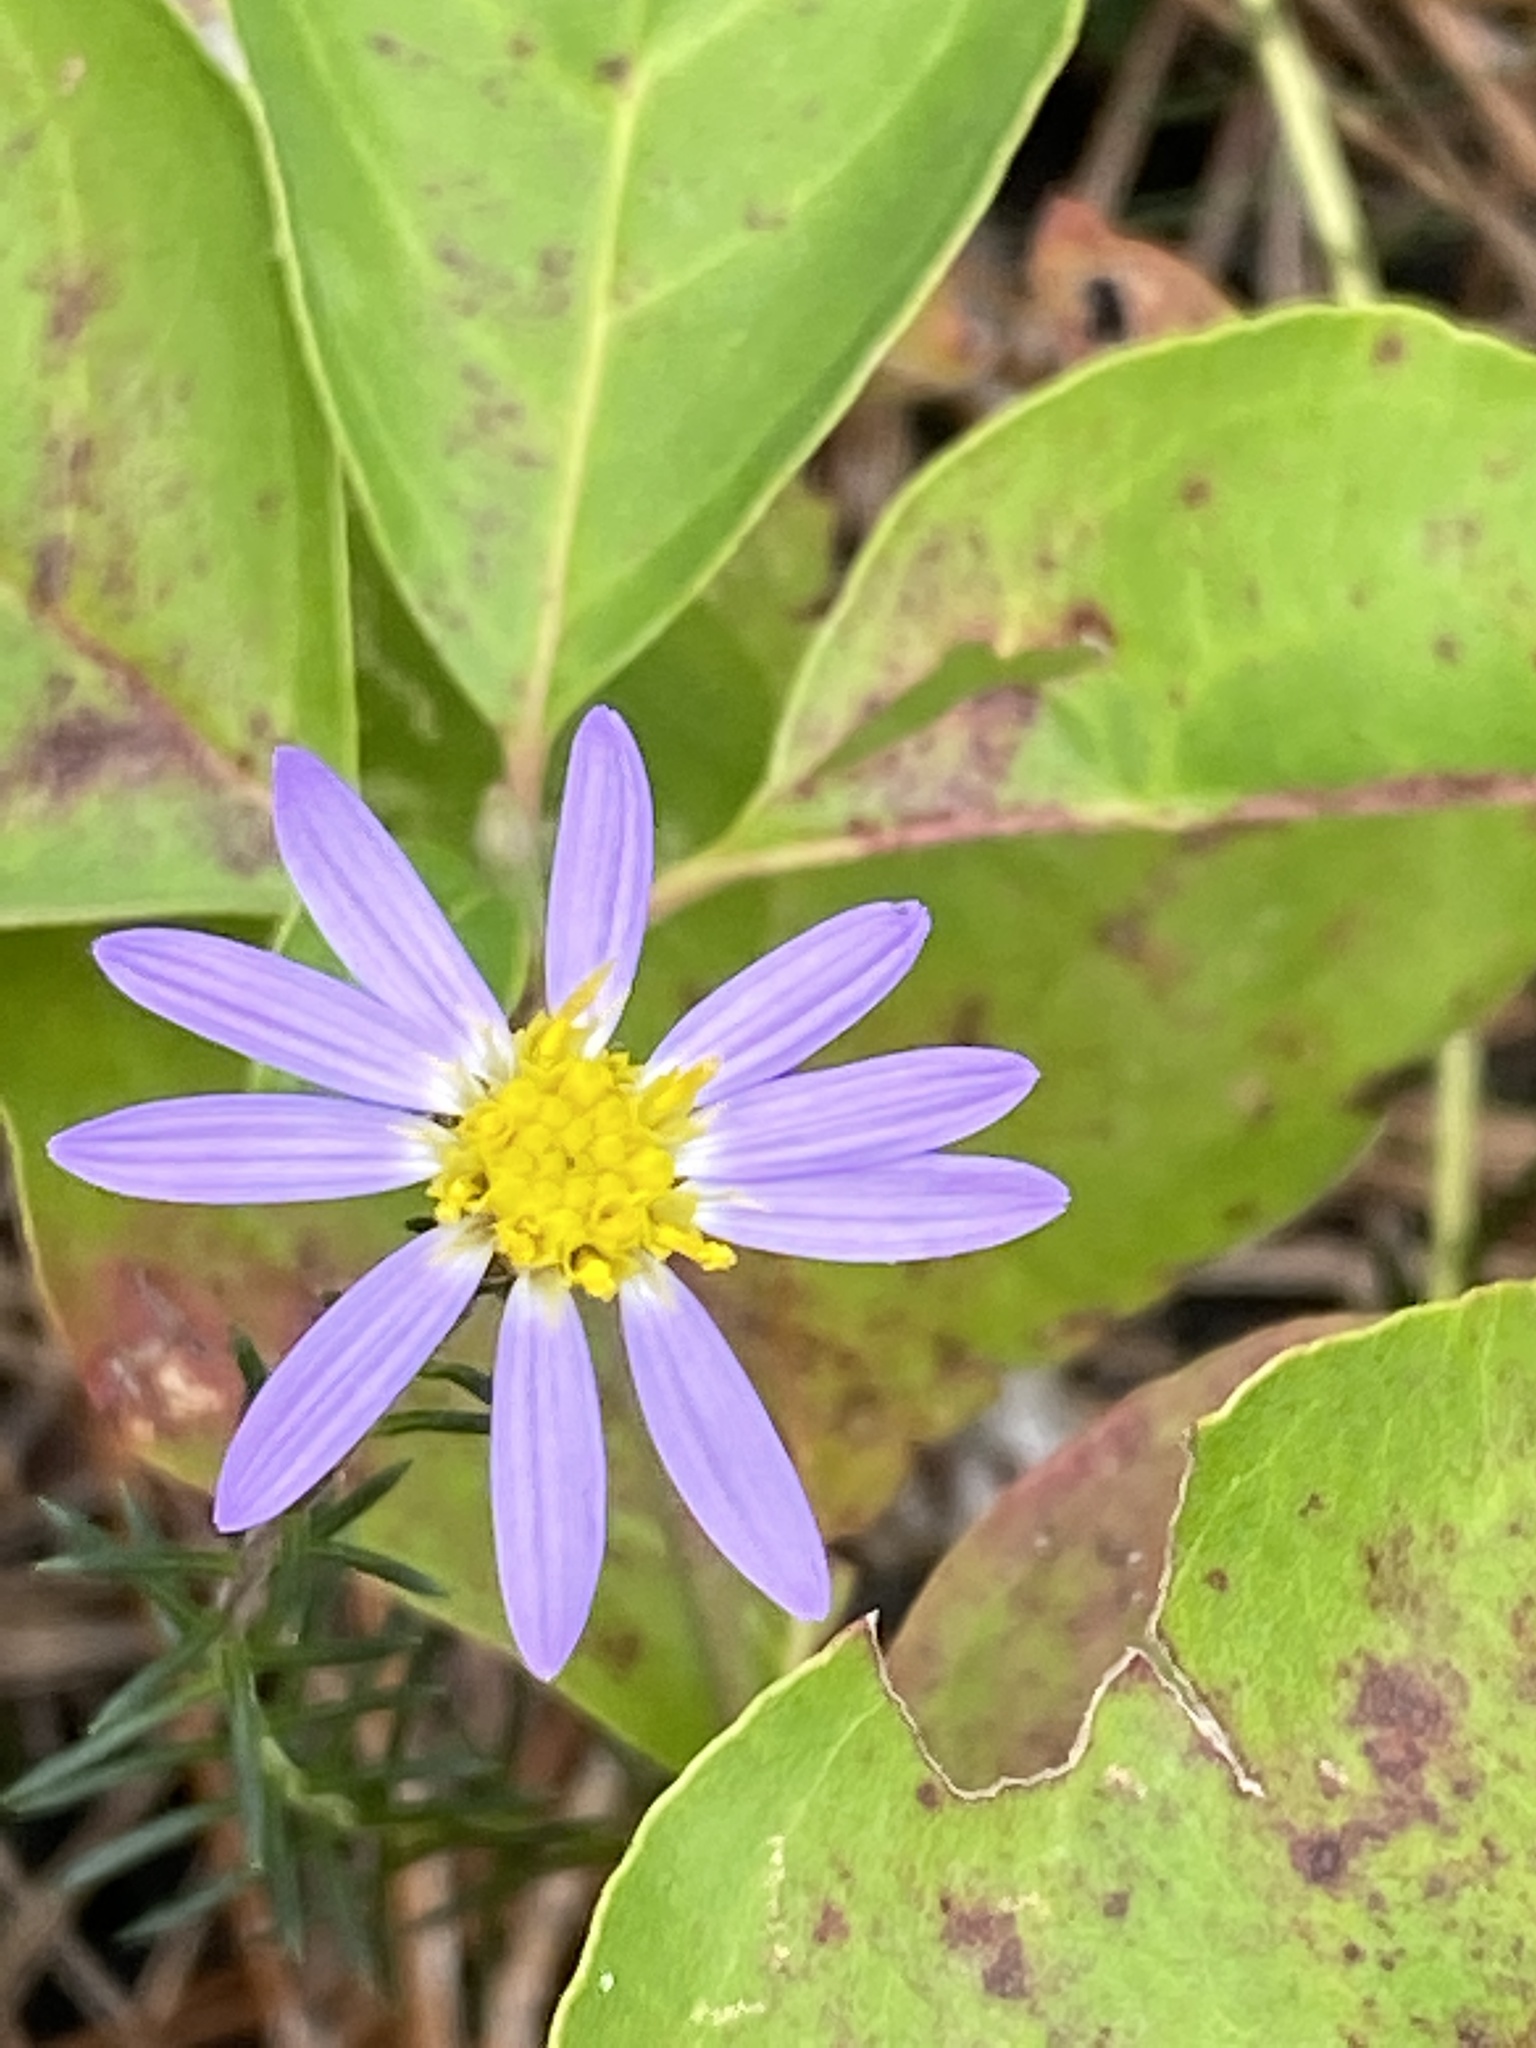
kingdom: Plantae
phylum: Tracheophyta
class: Magnoliopsida
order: Asterales
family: Asteraceae
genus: Ionactis
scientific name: Ionactis linariifolia
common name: Flax-leaf aster
